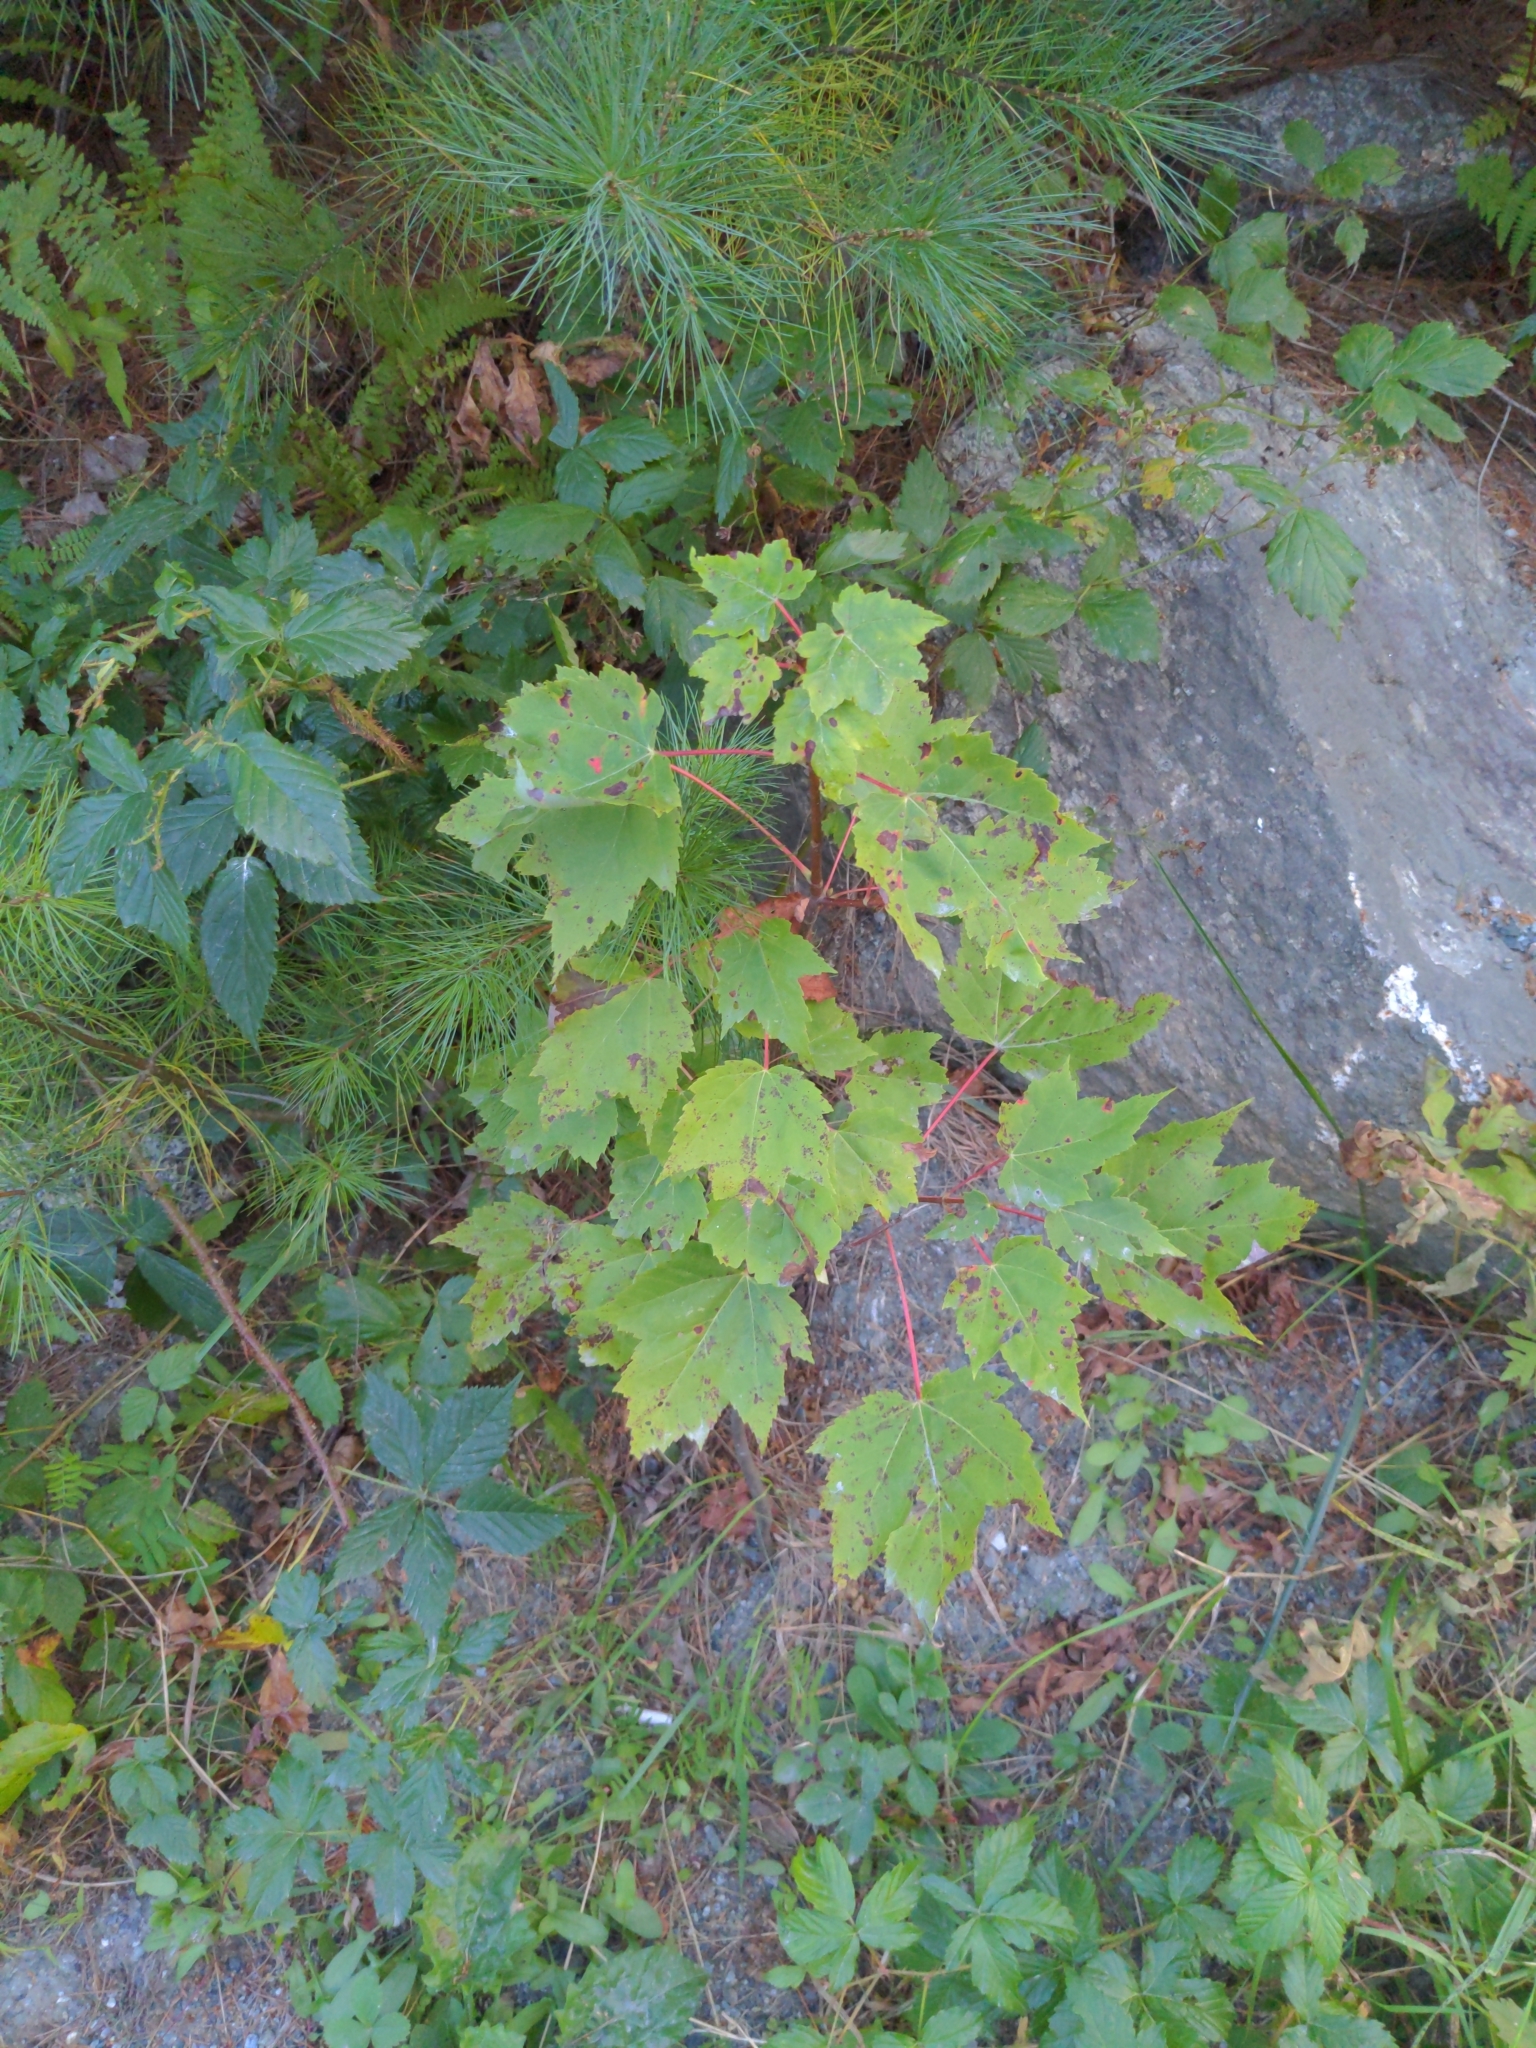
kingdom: Plantae
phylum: Tracheophyta
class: Magnoliopsida
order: Sapindales
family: Sapindaceae
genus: Acer
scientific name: Acer rubrum
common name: Red maple
